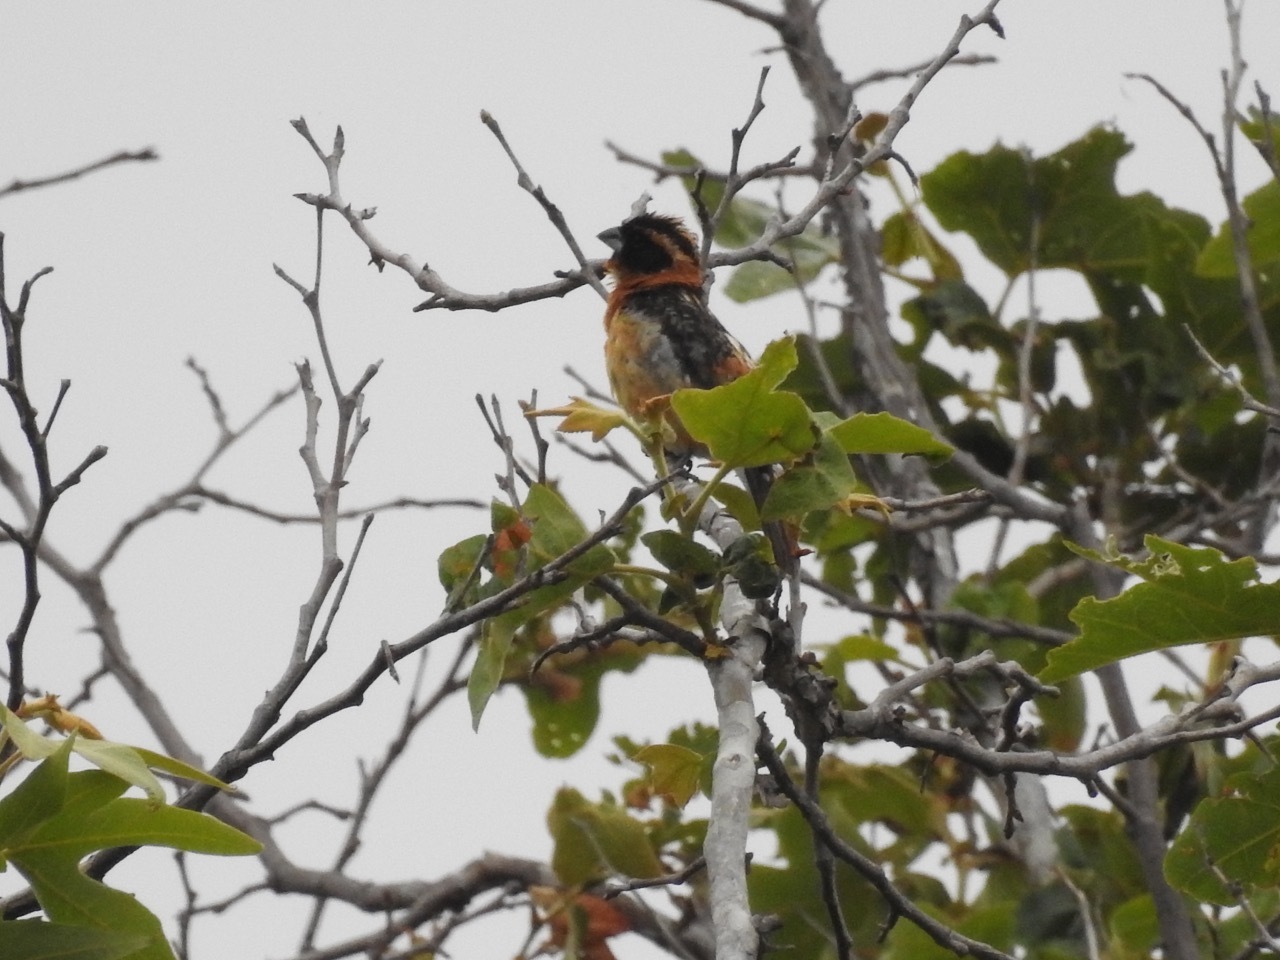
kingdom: Animalia
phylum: Chordata
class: Aves
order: Passeriformes
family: Cardinalidae
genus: Pheucticus
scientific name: Pheucticus melanocephalus
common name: Black-headed grosbeak
